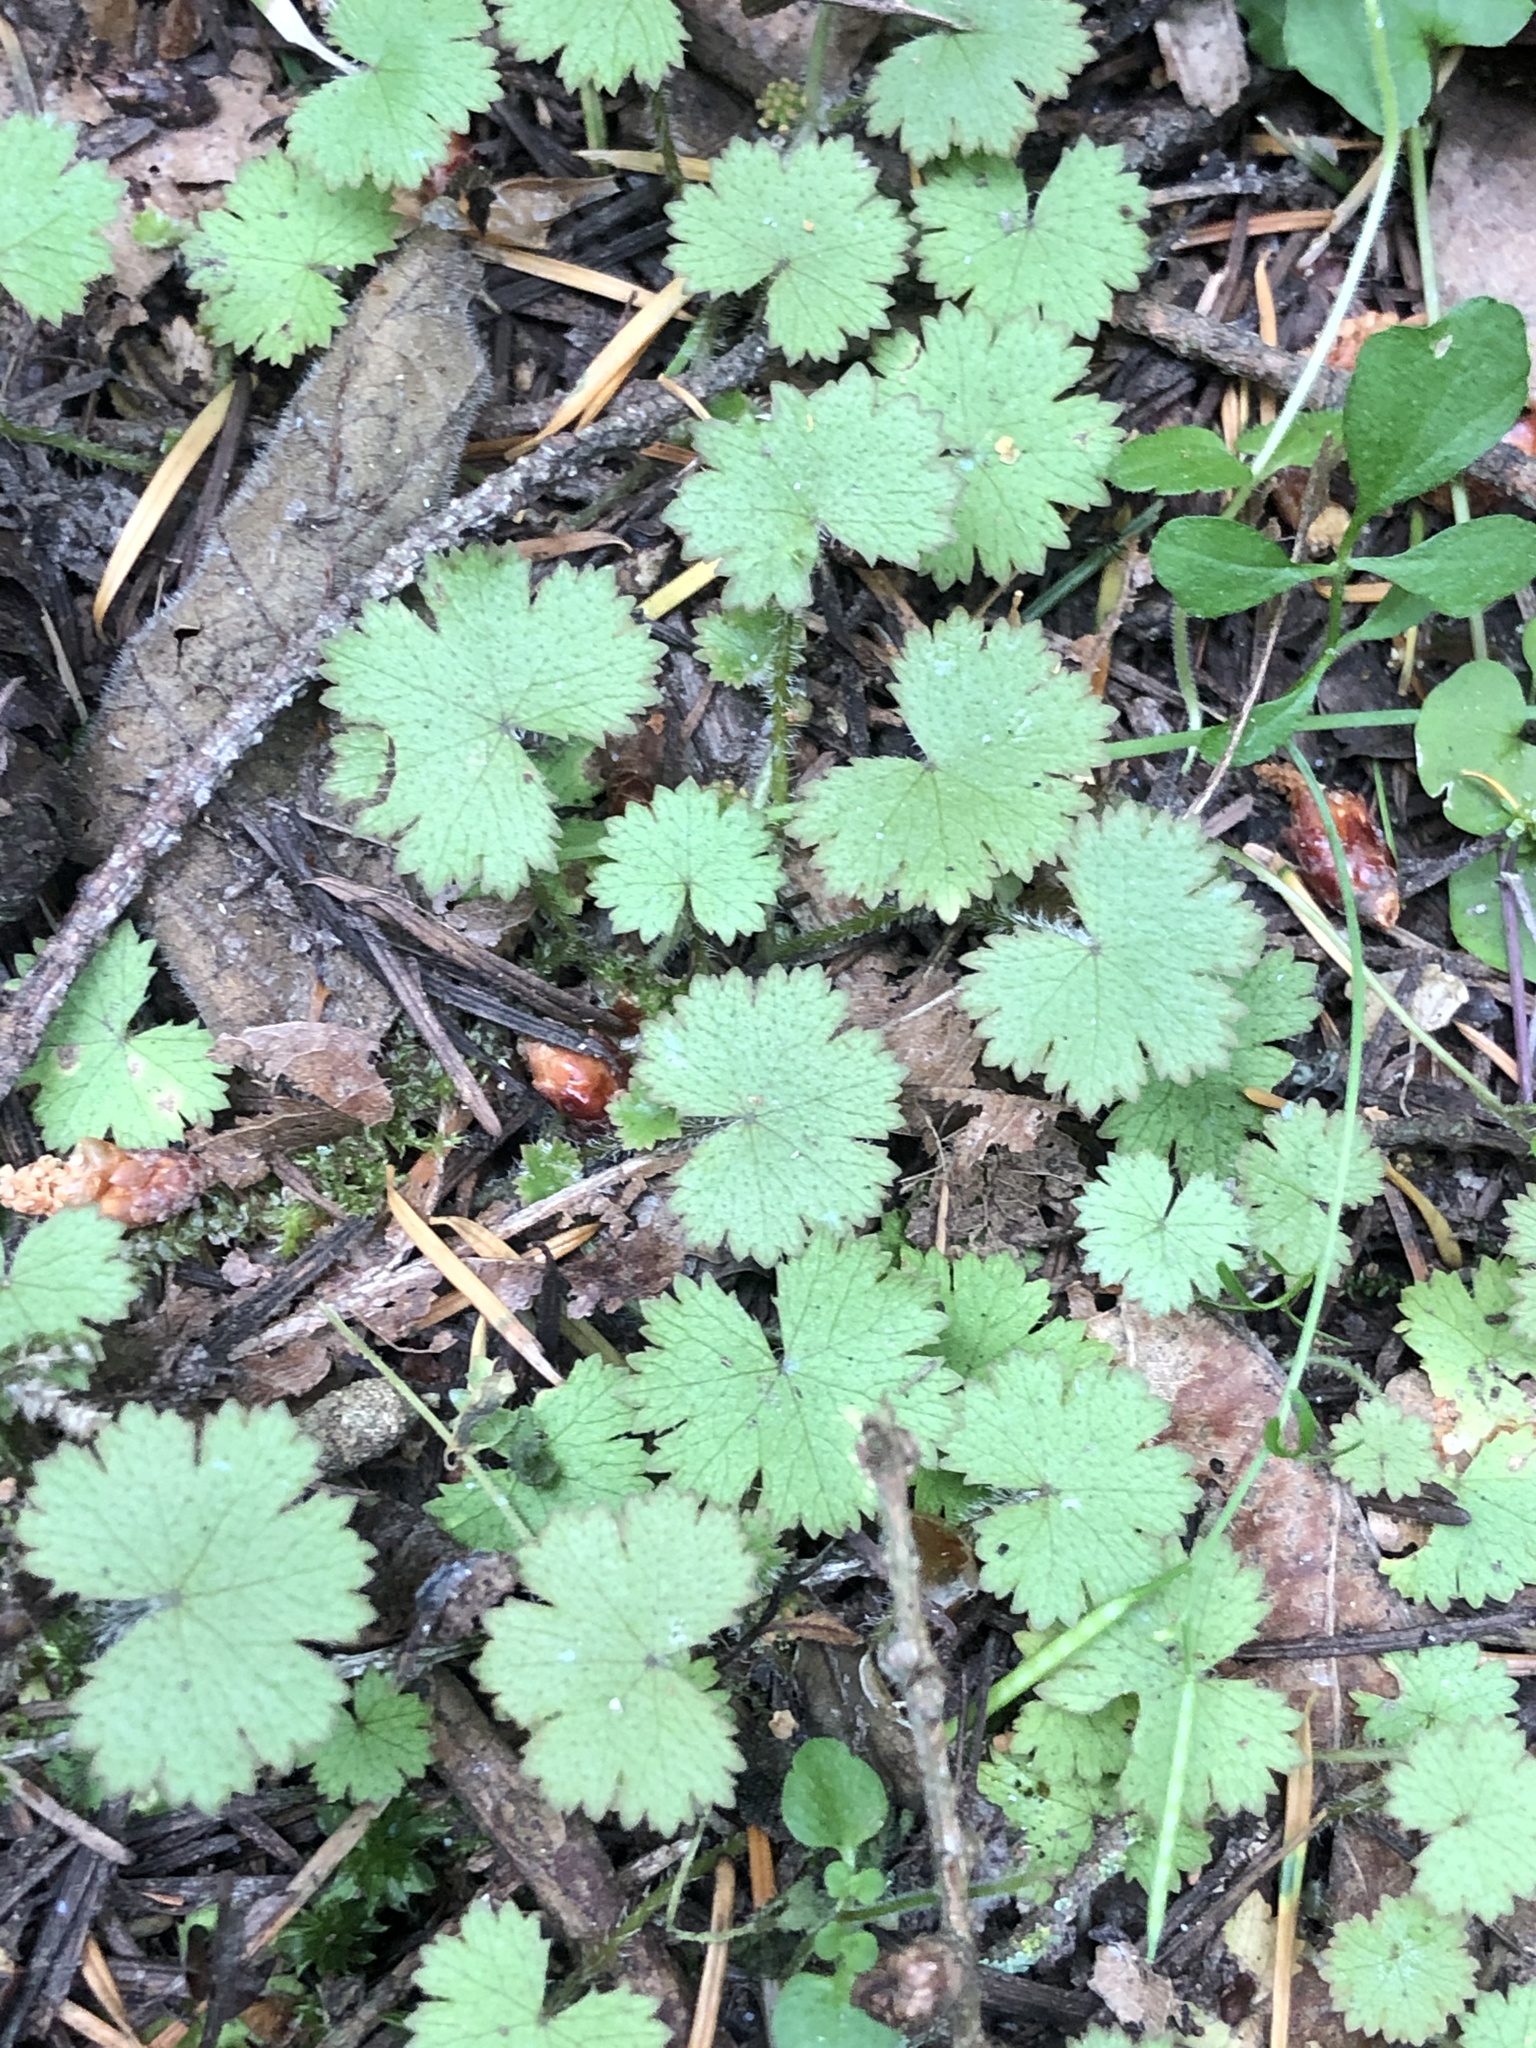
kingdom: Plantae
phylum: Tracheophyta
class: Magnoliopsida
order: Apiales
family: Araliaceae
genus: Hydrocotyle
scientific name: Hydrocotyle moschata
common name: Hairy pennywort
